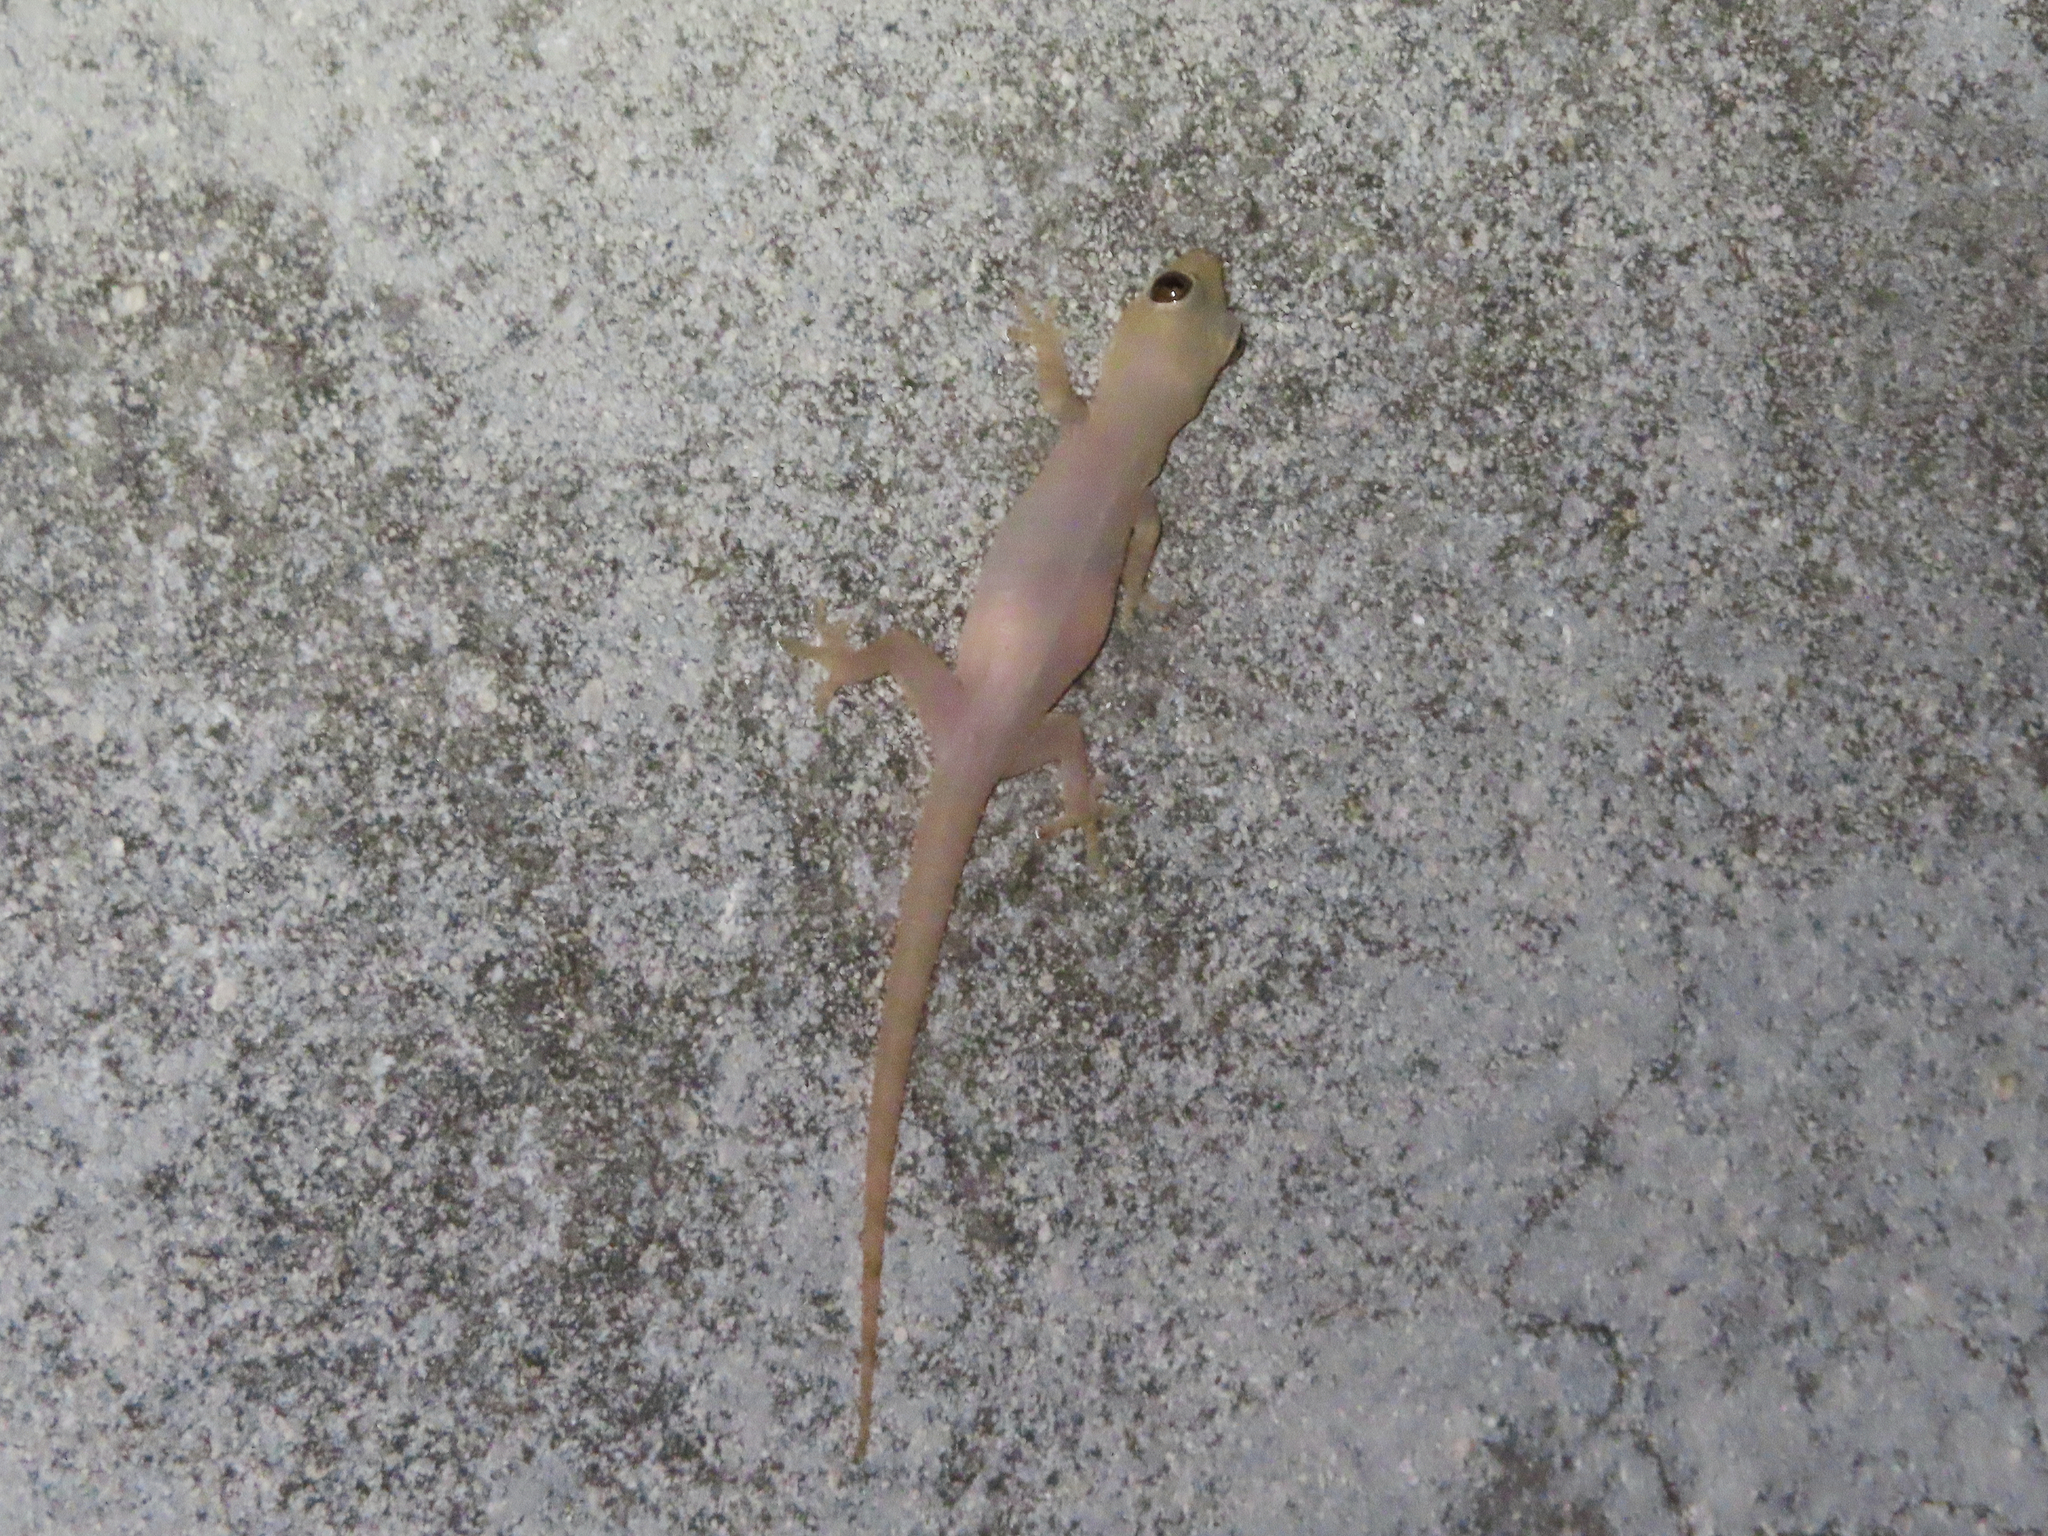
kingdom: Animalia
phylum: Chordata
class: Squamata
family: Gekkonidae
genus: Hemidactylus
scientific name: Hemidactylus frenatus
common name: Common house gecko
